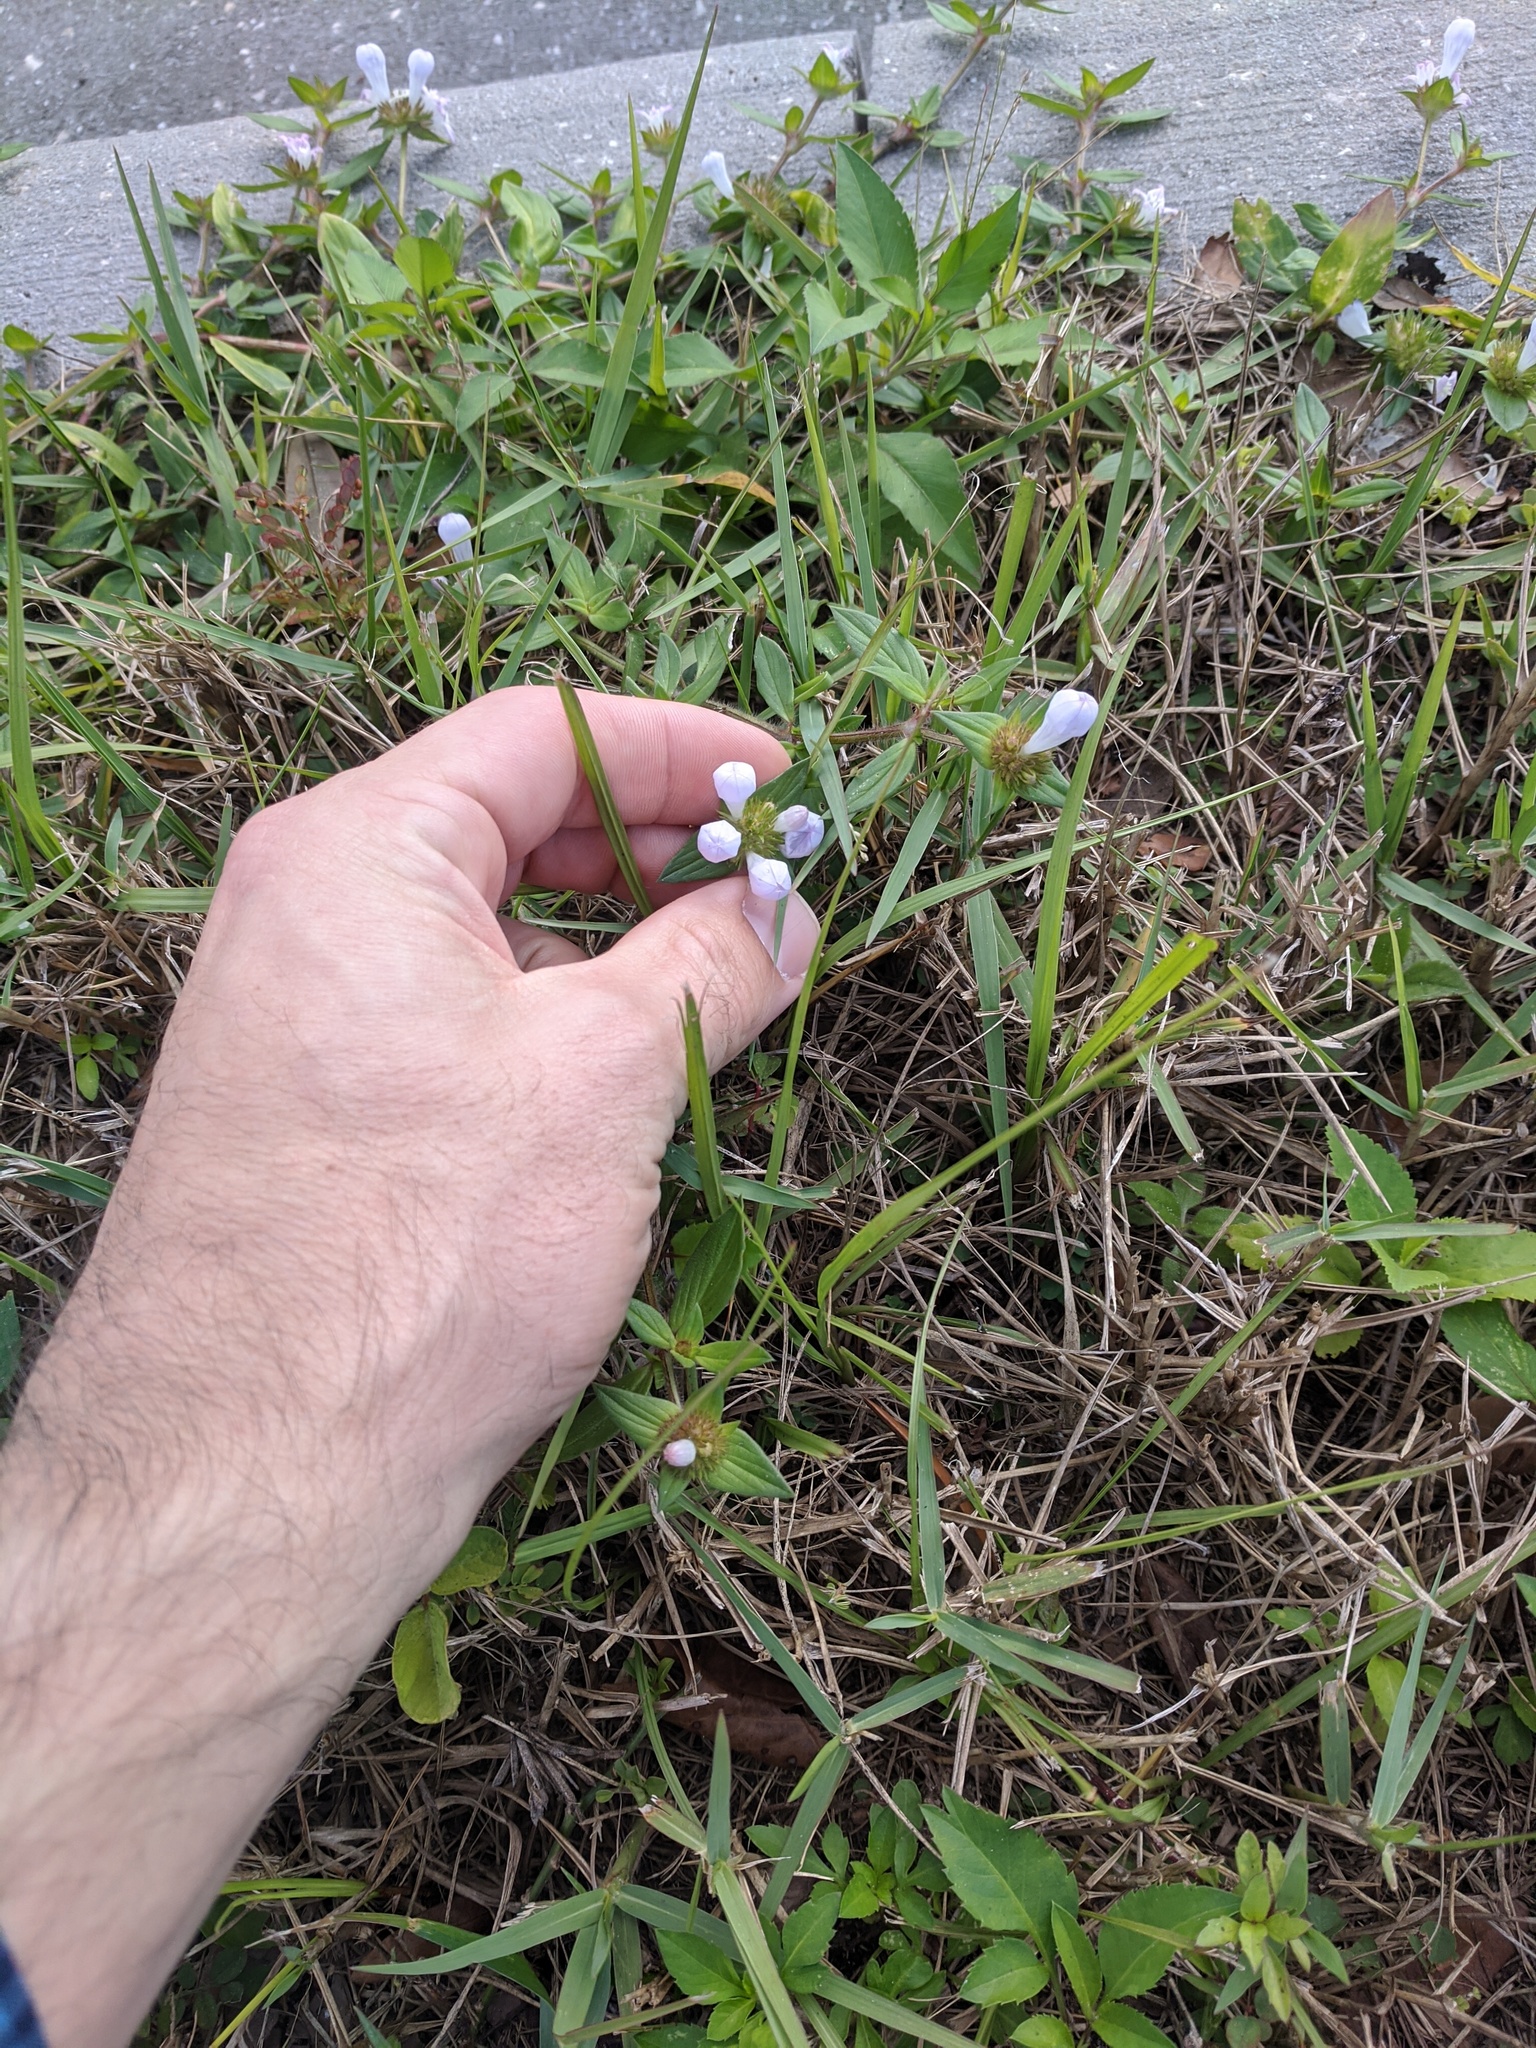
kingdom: Plantae
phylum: Tracheophyta
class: Magnoliopsida
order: Gentianales
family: Rubiaceae
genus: Richardia
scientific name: Richardia grandiflora
